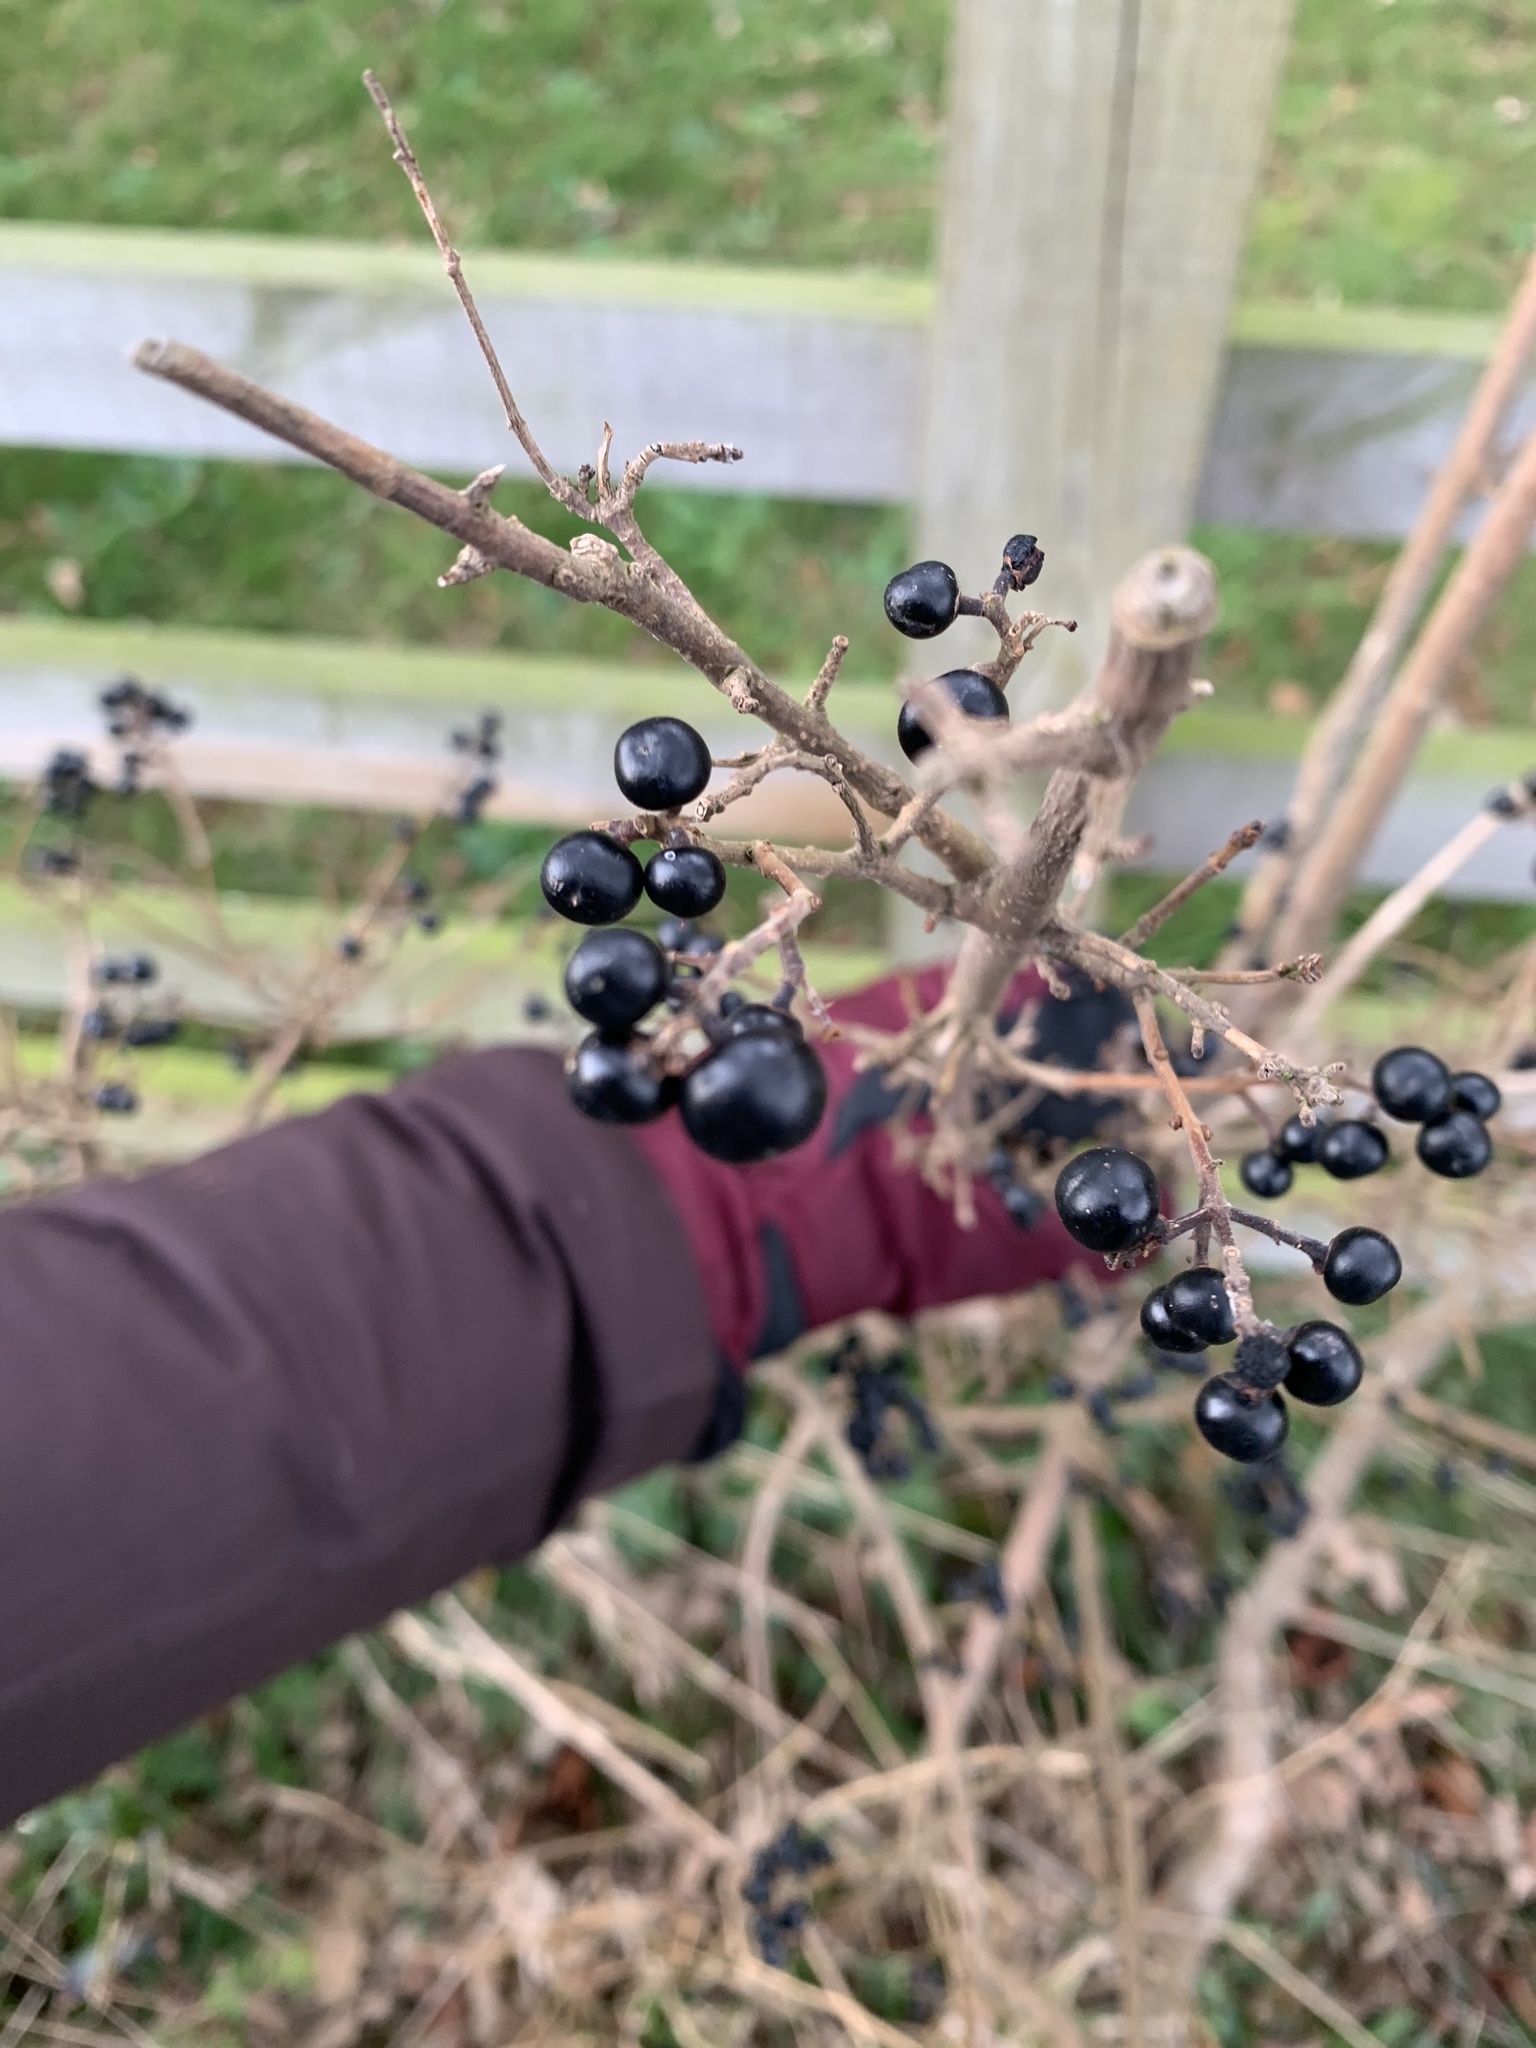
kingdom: Plantae
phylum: Tracheophyta
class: Magnoliopsida
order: Rosales
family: Rhamnaceae
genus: Rhamnus
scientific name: Rhamnus cathartica
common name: Common buckthorn
